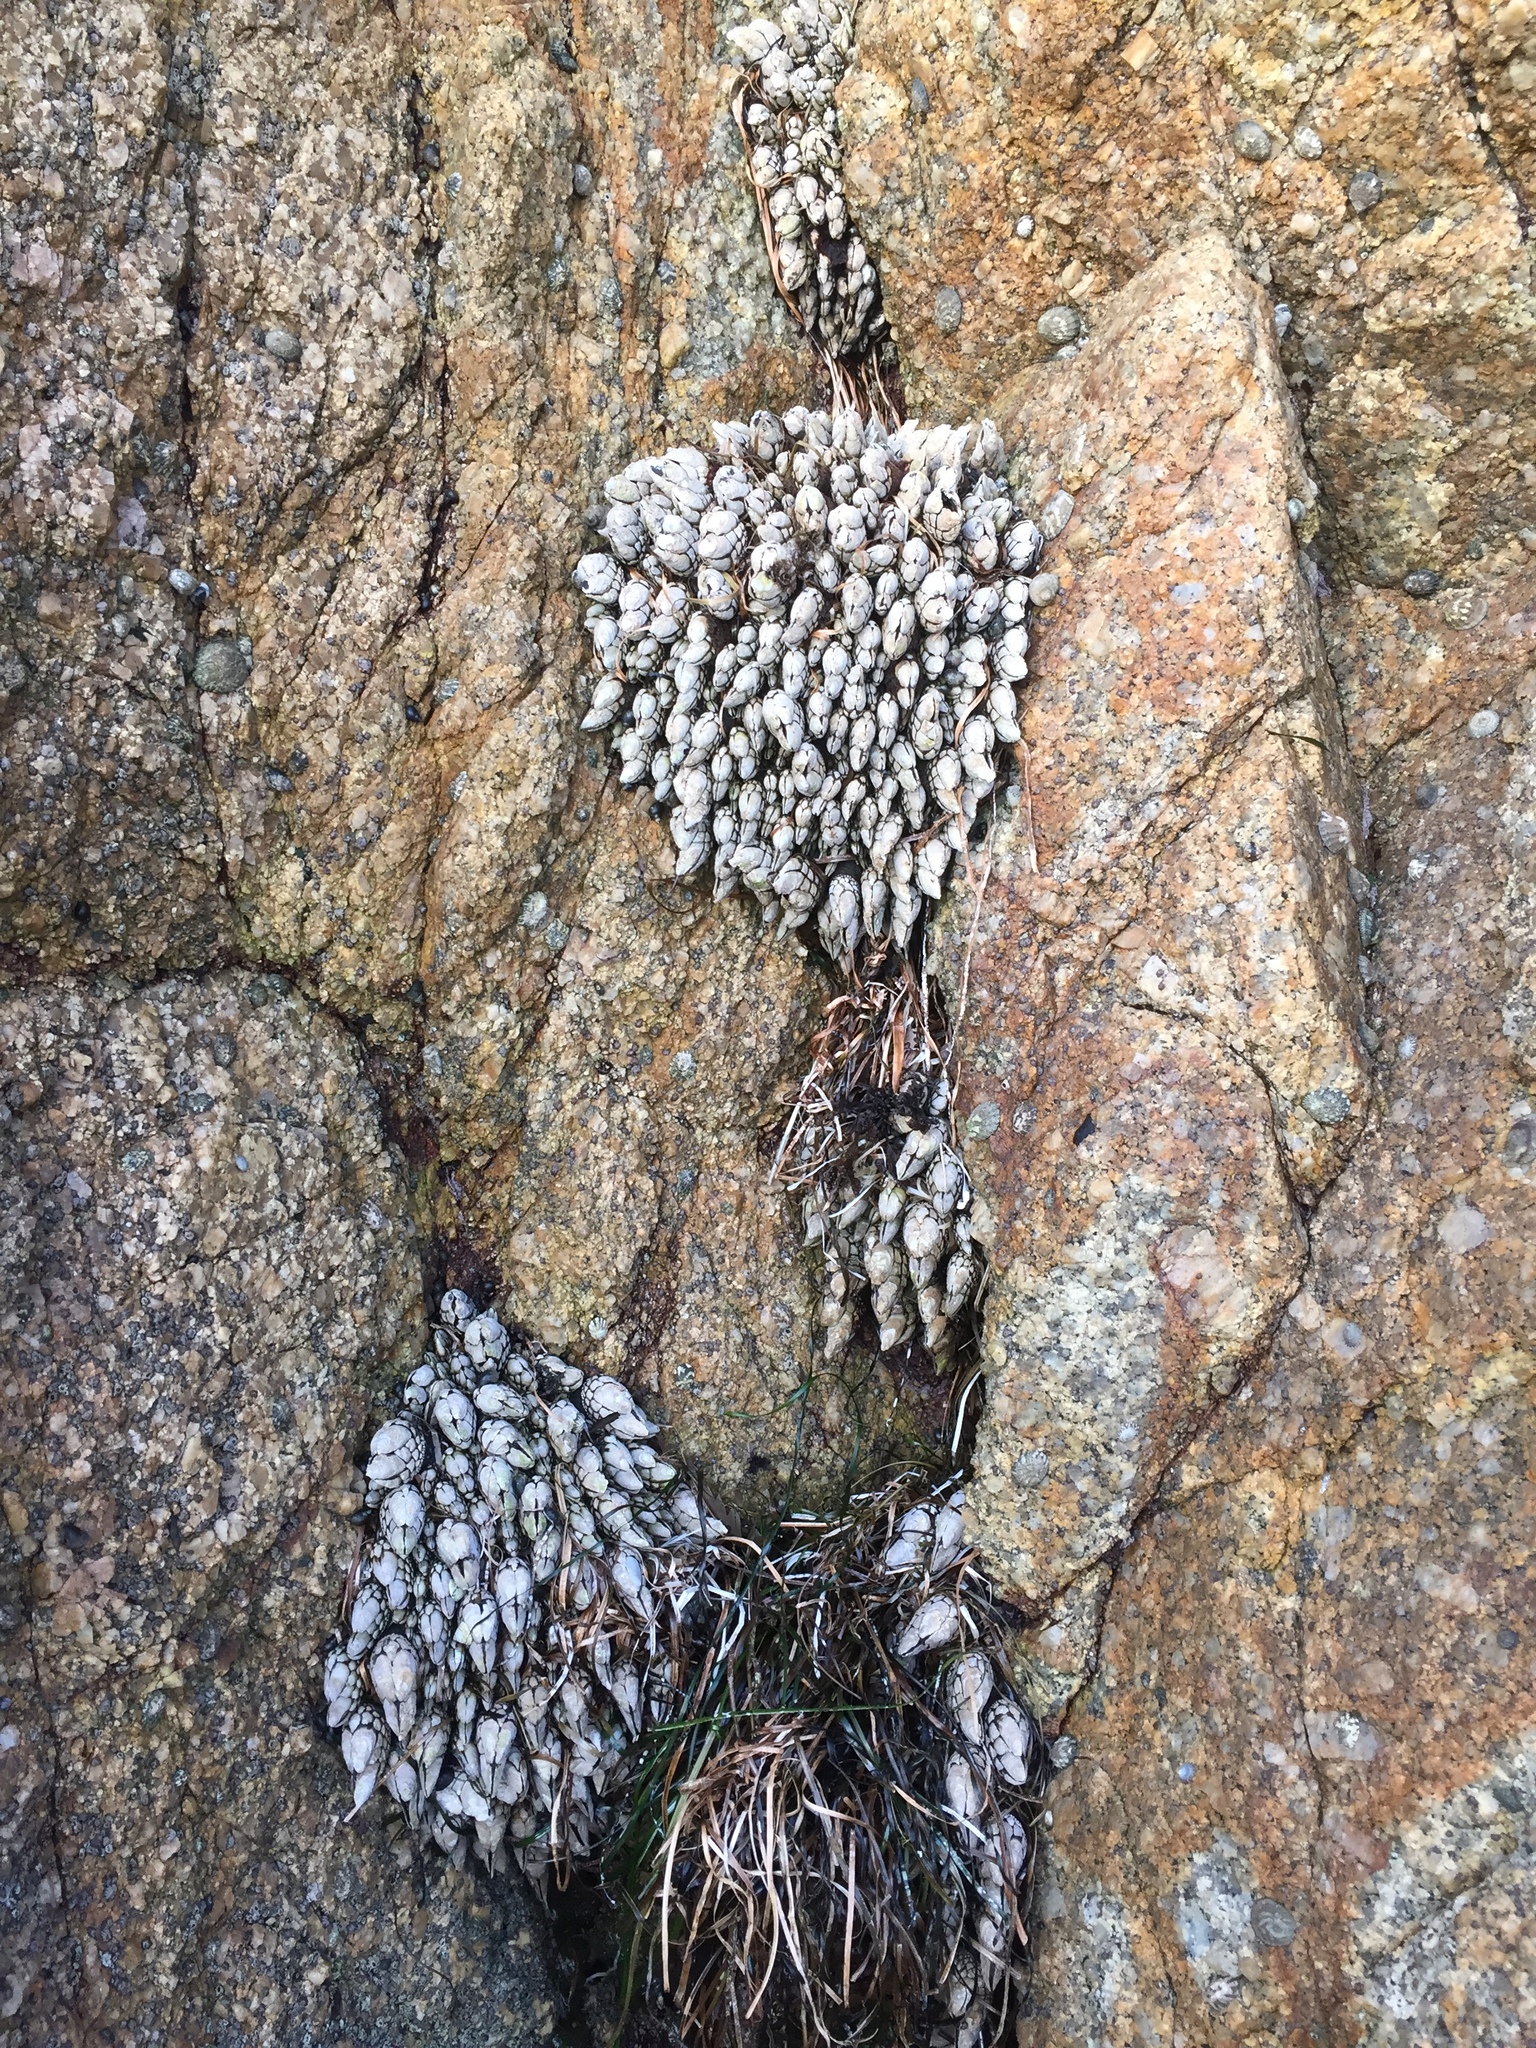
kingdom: Animalia
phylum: Arthropoda
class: Maxillopoda
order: Pedunculata
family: Pollicipedidae
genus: Pollicipes
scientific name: Pollicipes polymerus
